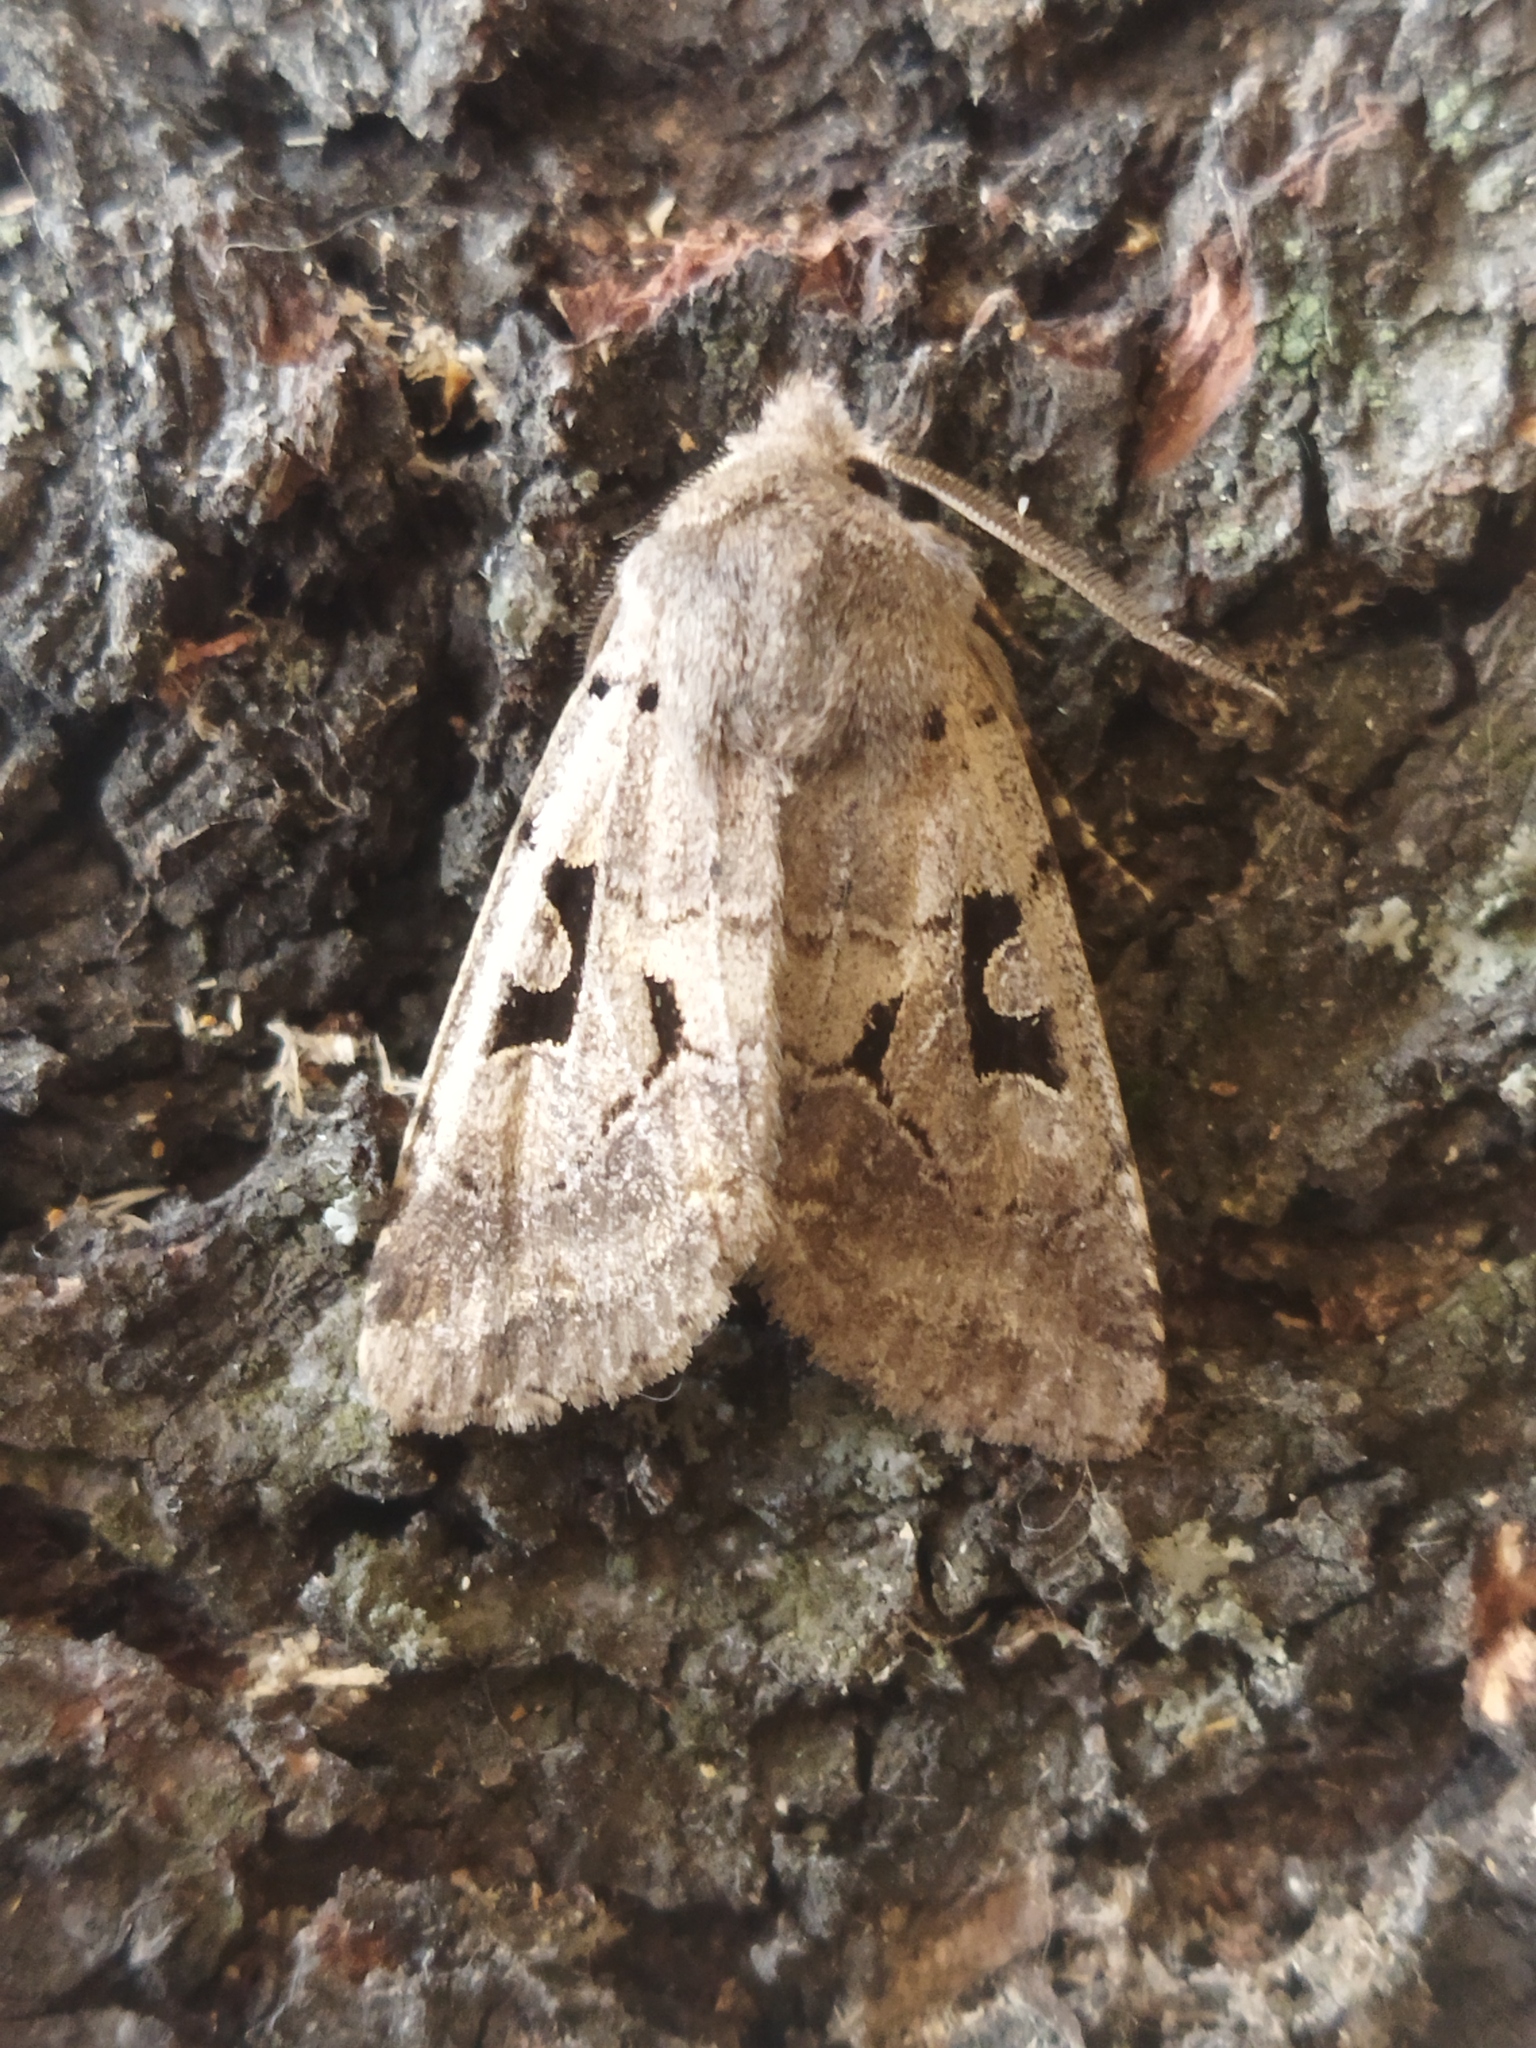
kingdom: Animalia
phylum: Arthropoda
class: Insecta
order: Lepidoptera
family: Noctuidae
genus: Orthosia
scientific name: Orthosia gothica
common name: Hebrew character
